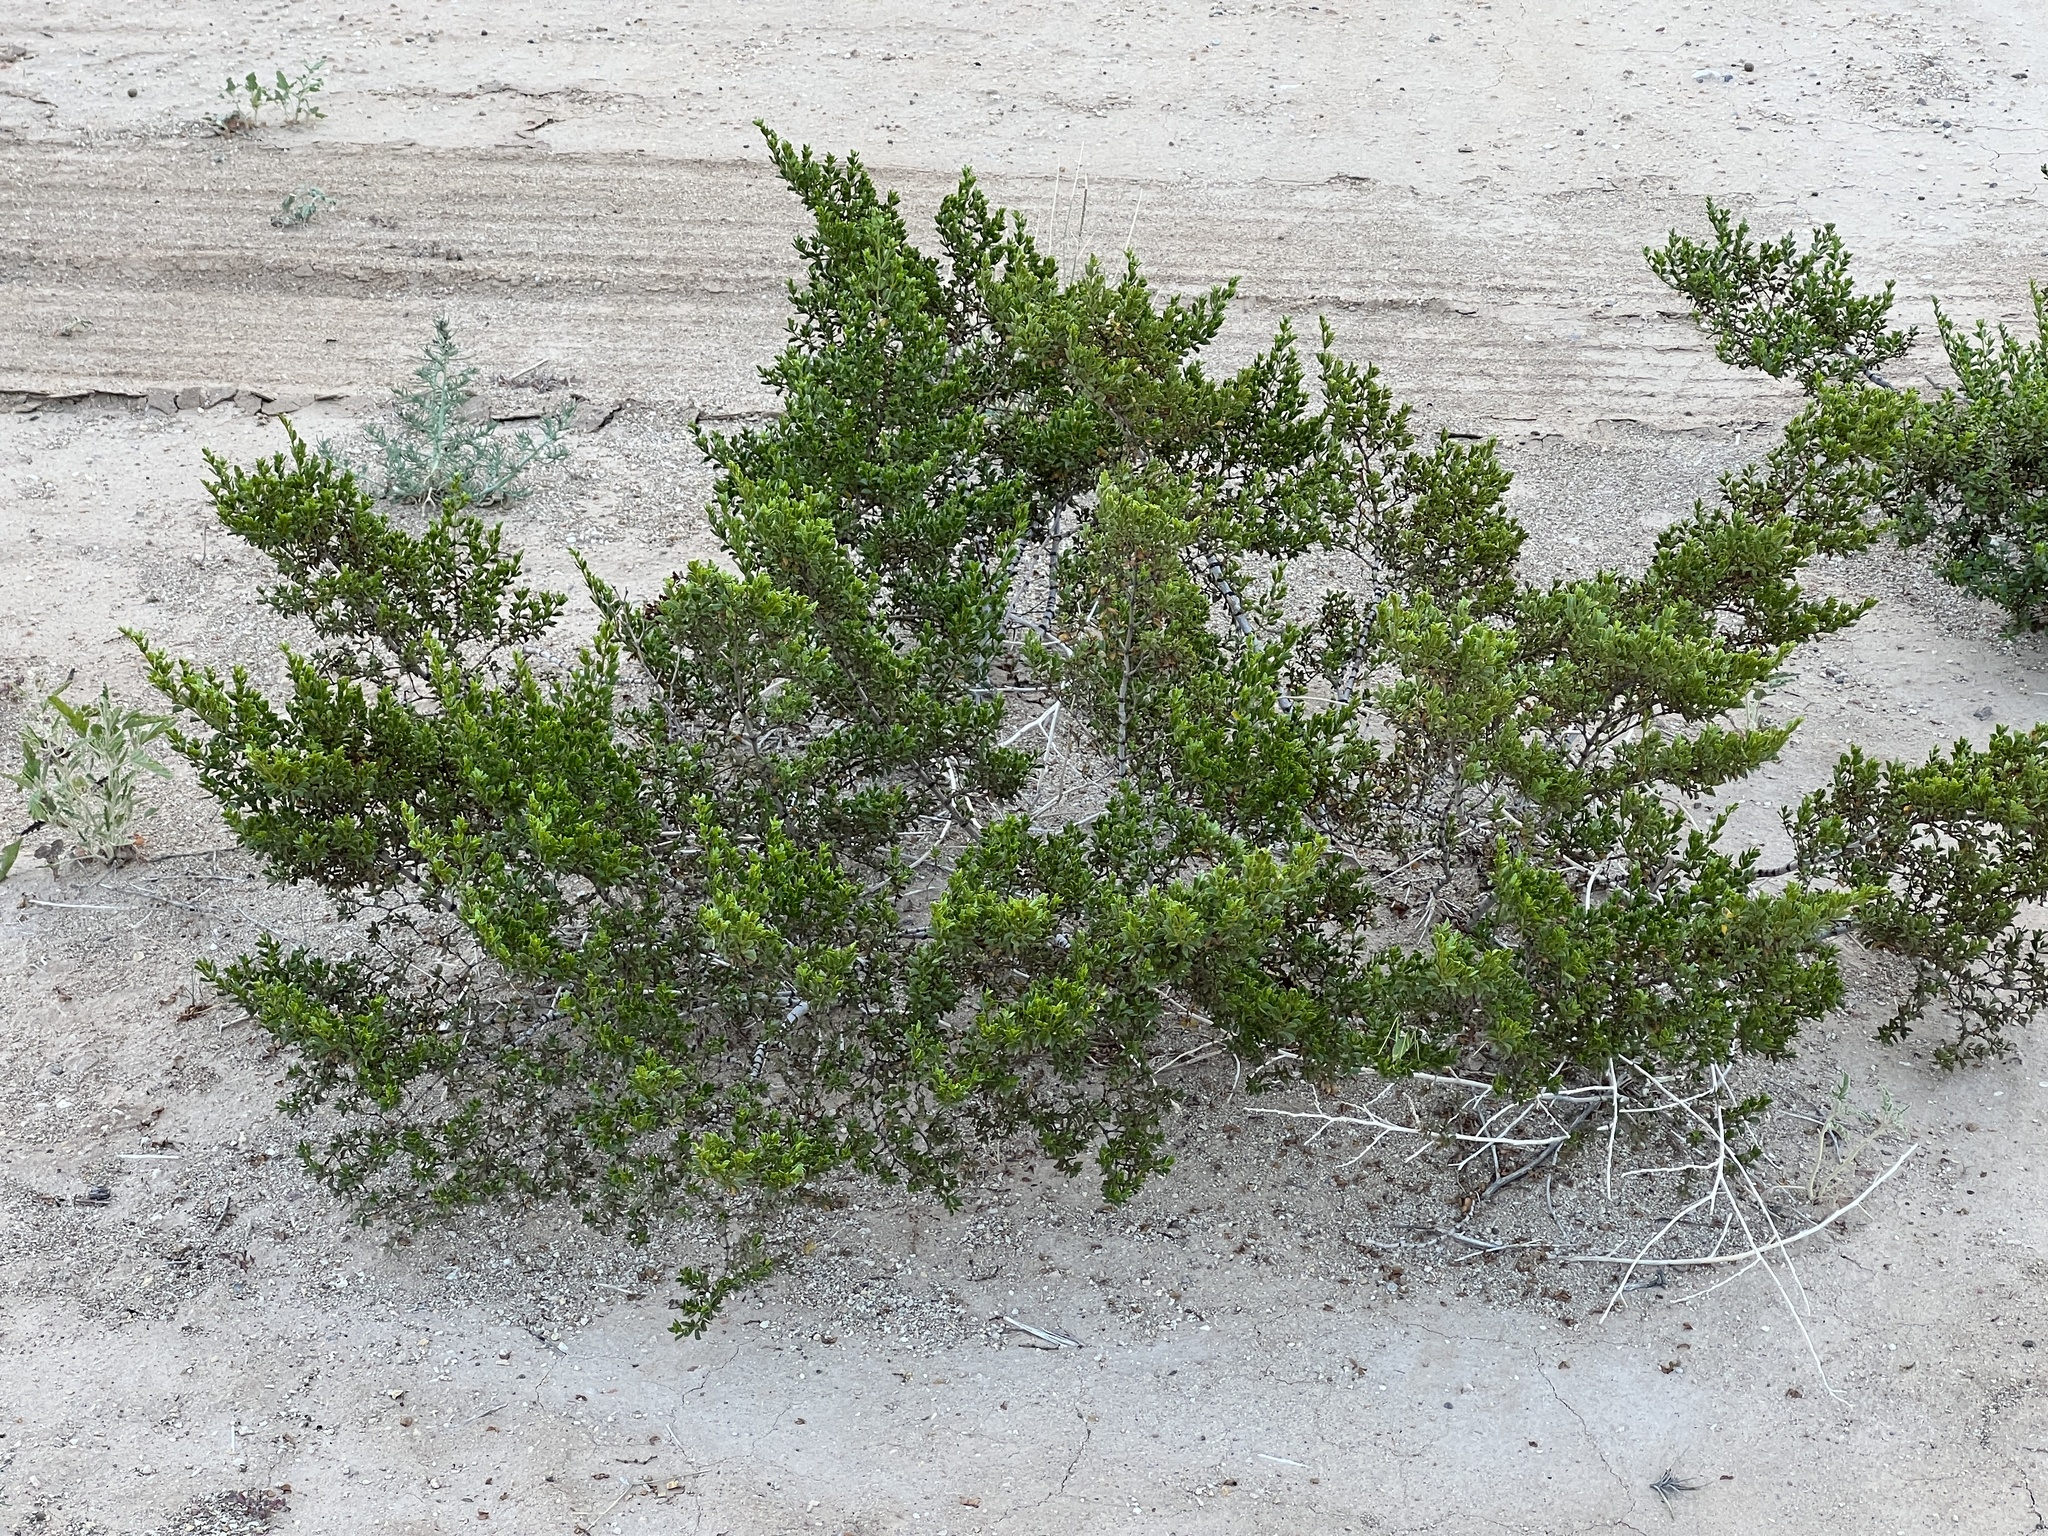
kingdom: Plantae
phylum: Tracheophyta
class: Magnoliopsida
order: Zygophyllales
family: Zygophyllaceae
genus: Larrea
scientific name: Larrea tridentata
